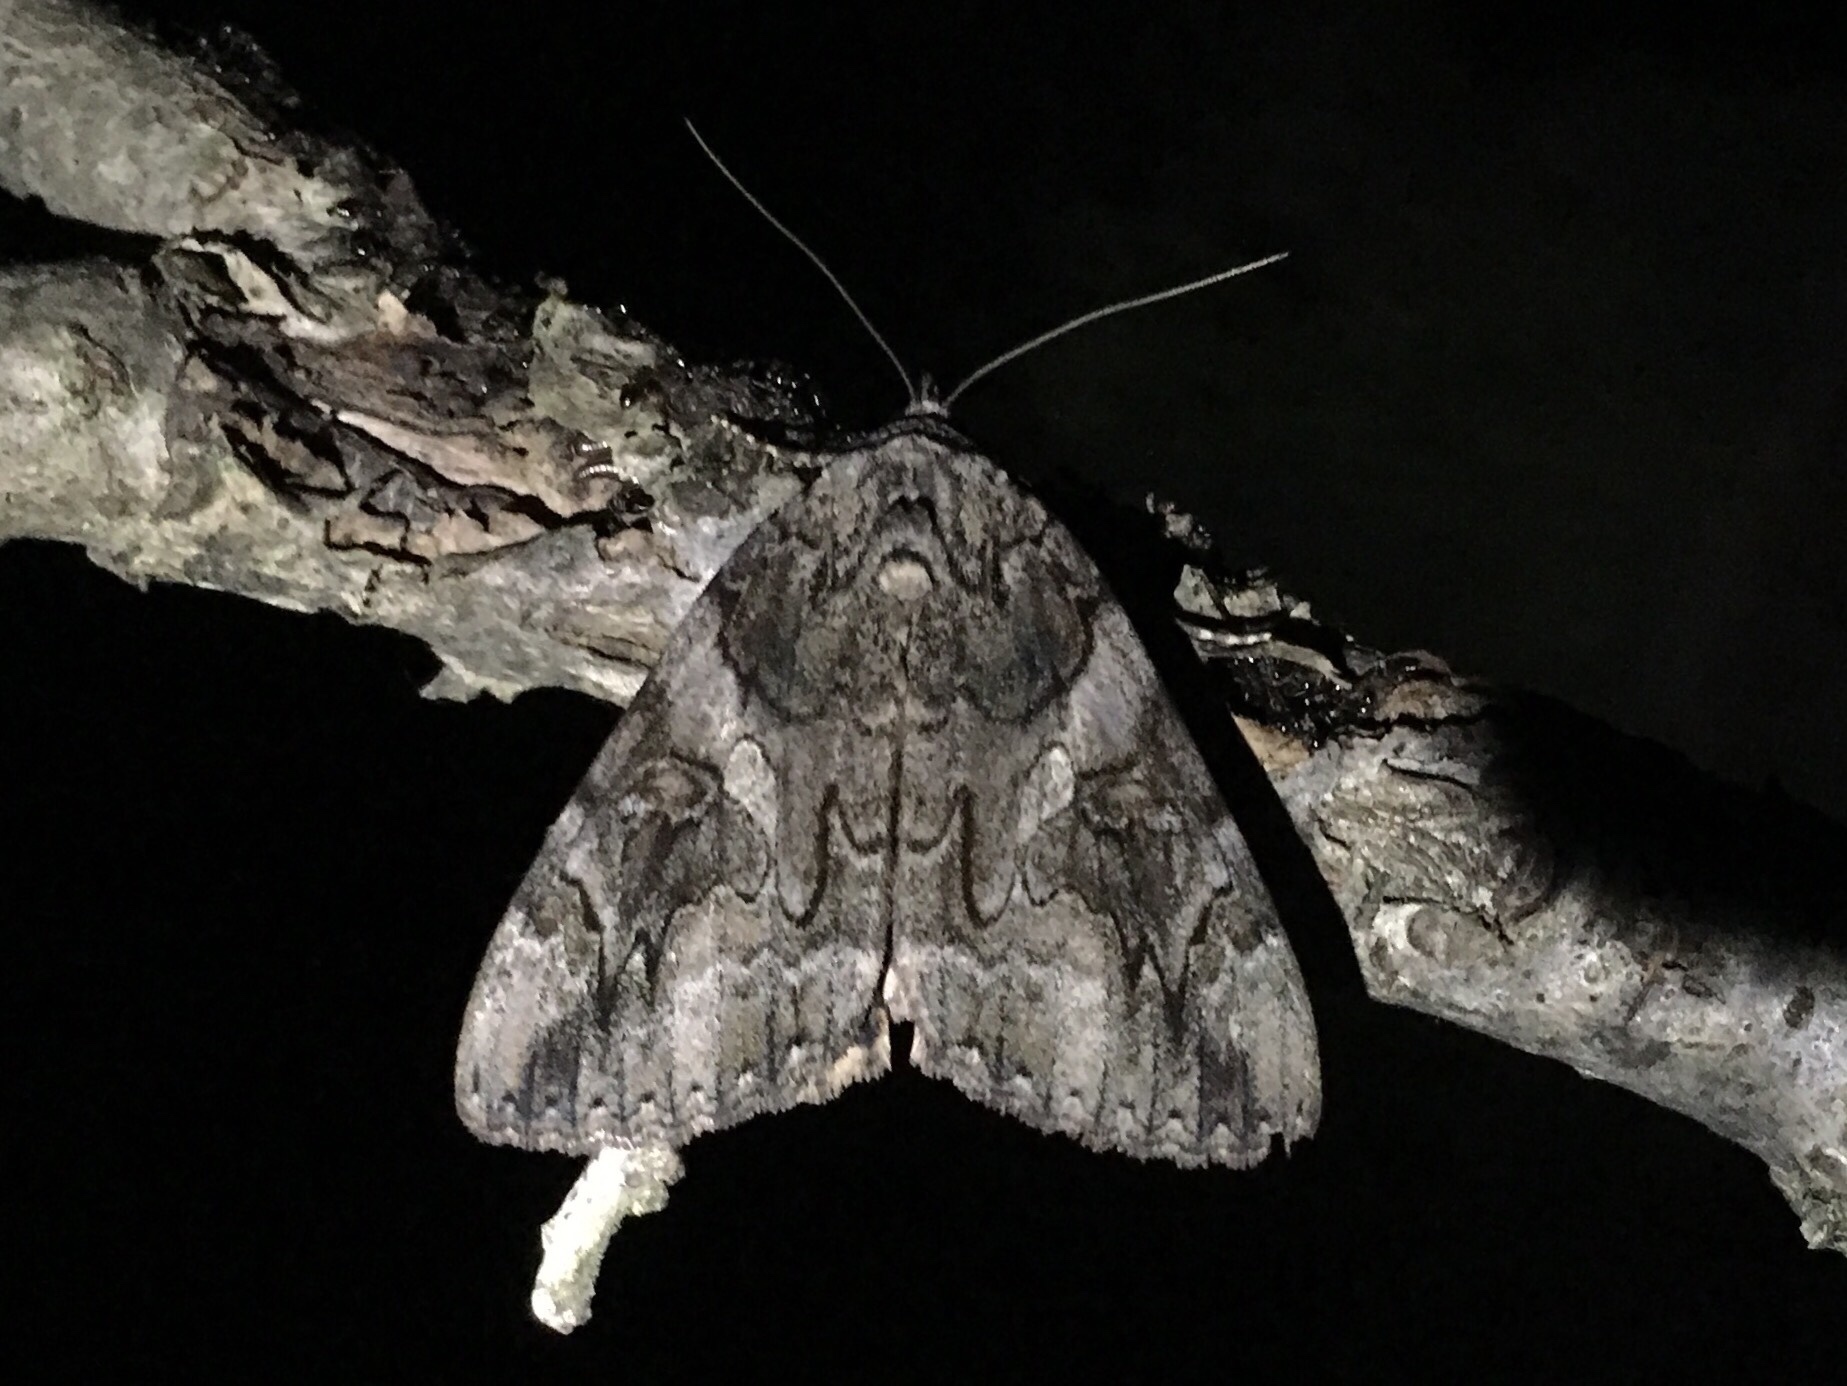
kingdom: Animalia
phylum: Arthropoda
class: Insecta
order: Lepidoptera
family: Erebidae
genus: Catocala
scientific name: Catocala piatrix
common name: The penitent underwing
